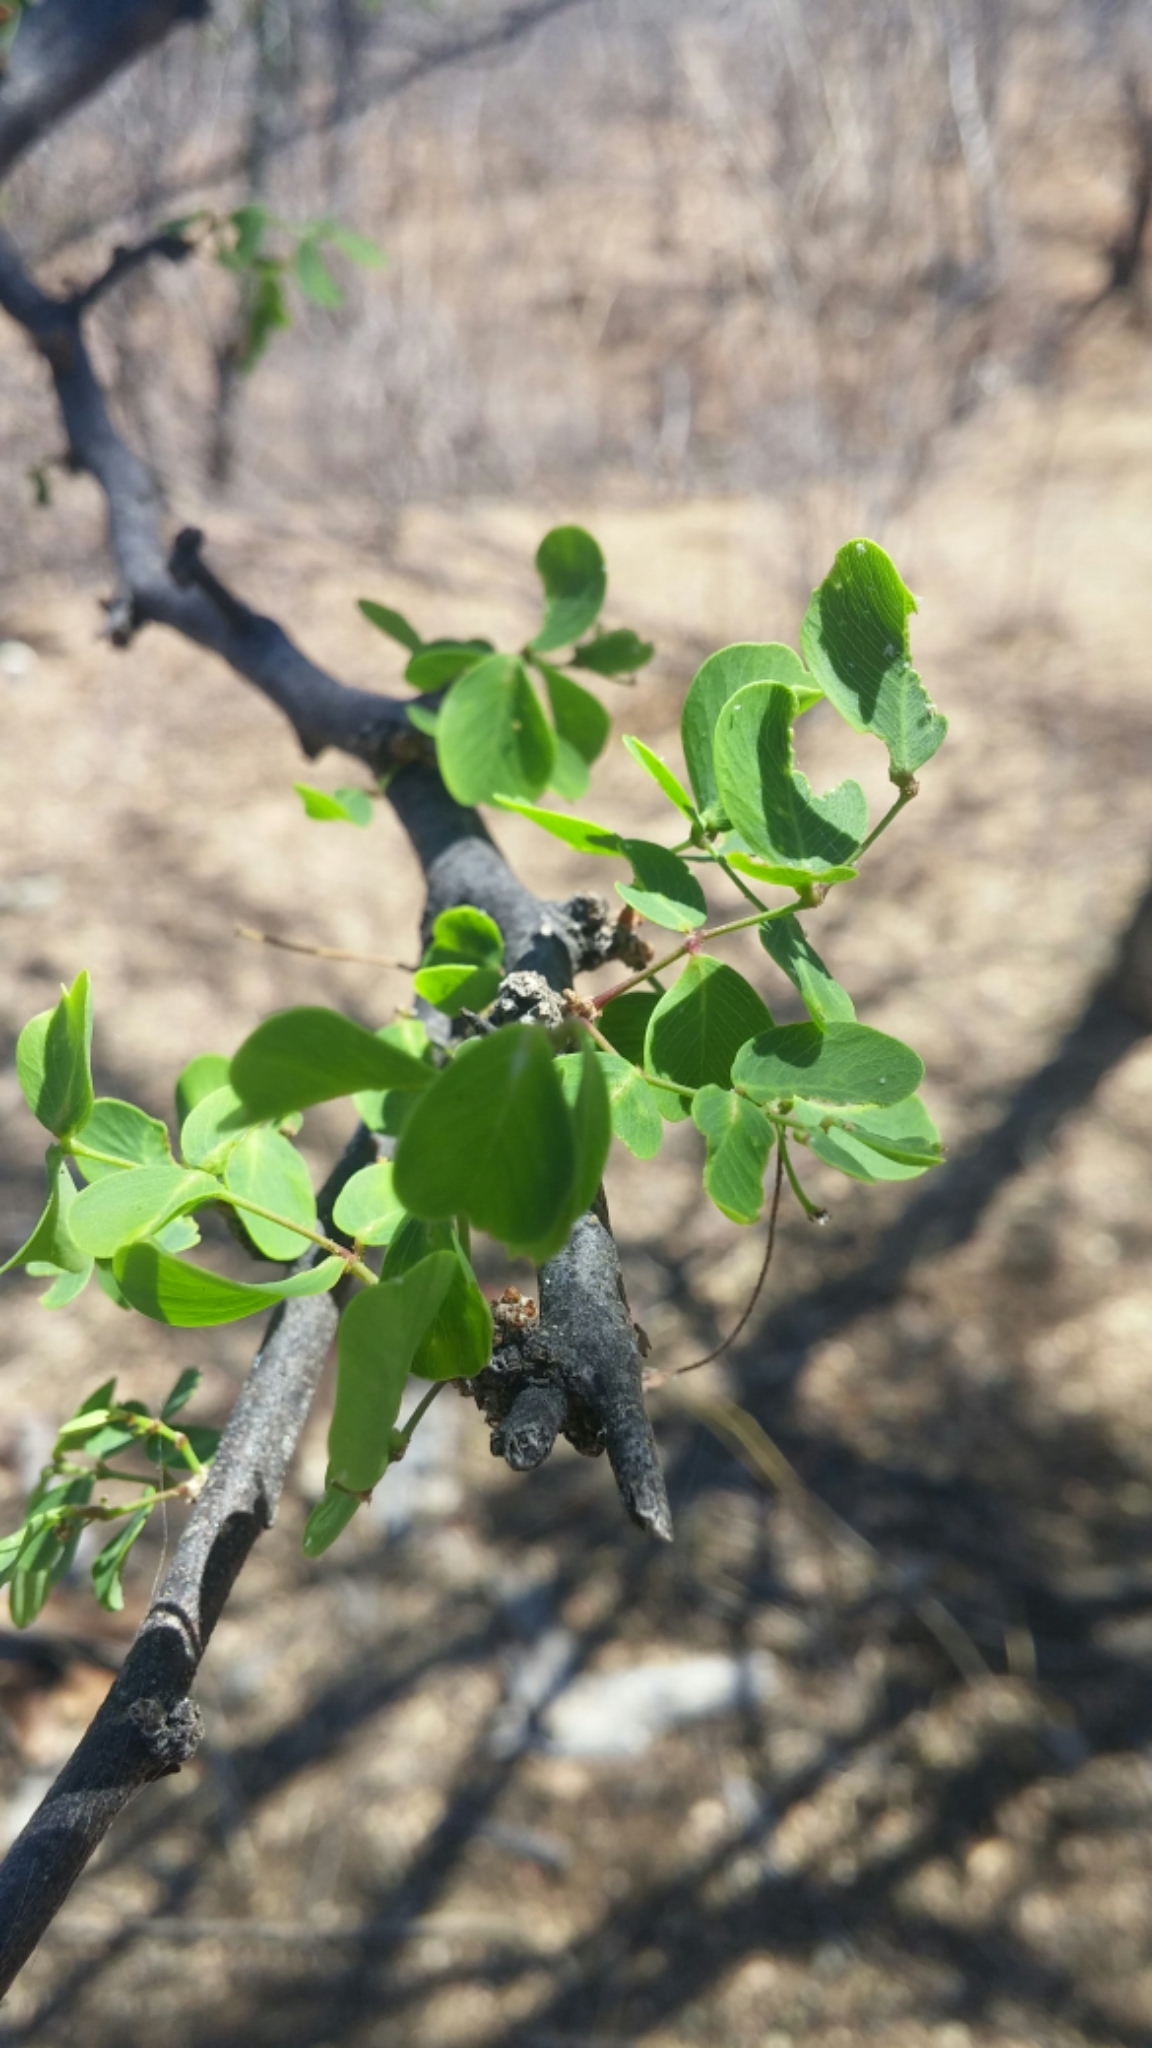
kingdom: Plantae
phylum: Tracheophyta
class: Magnoliopsida
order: Fabales
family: Fabaceae
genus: Haematoxylum
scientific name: Haematoxylum brasiletto
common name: Peachwood
